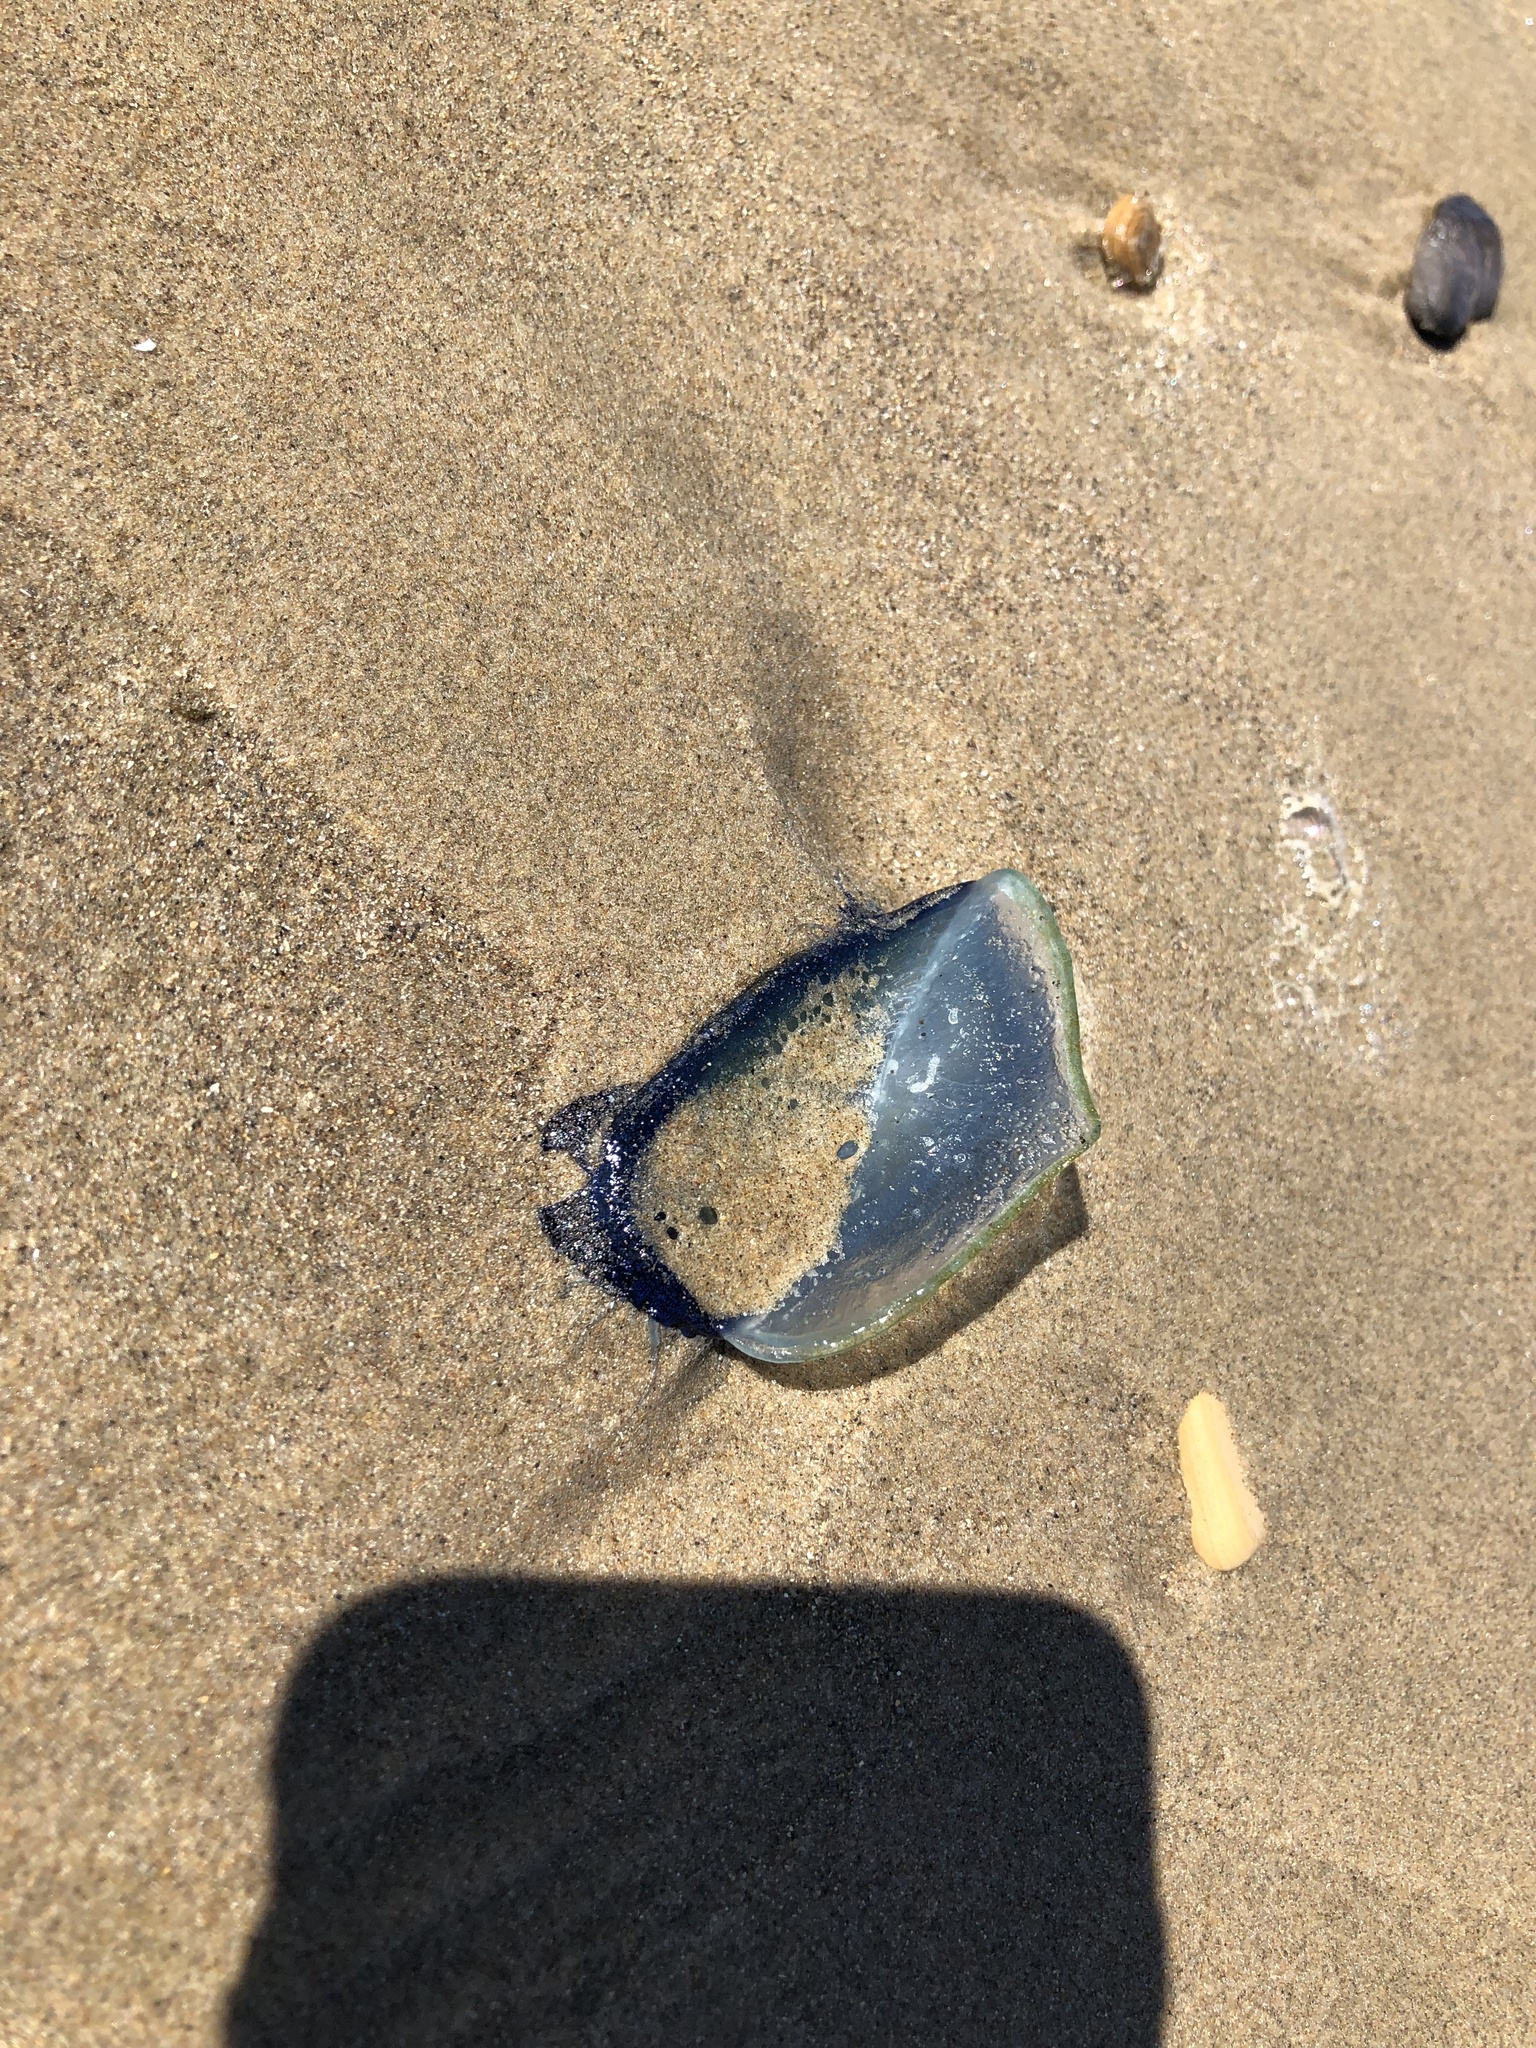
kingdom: Animalia
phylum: Cnidaria
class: Hydrozoa
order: Anthoathecata
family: Porpitidae
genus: Velella
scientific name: Velella velella
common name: By-the-wind-sailor
